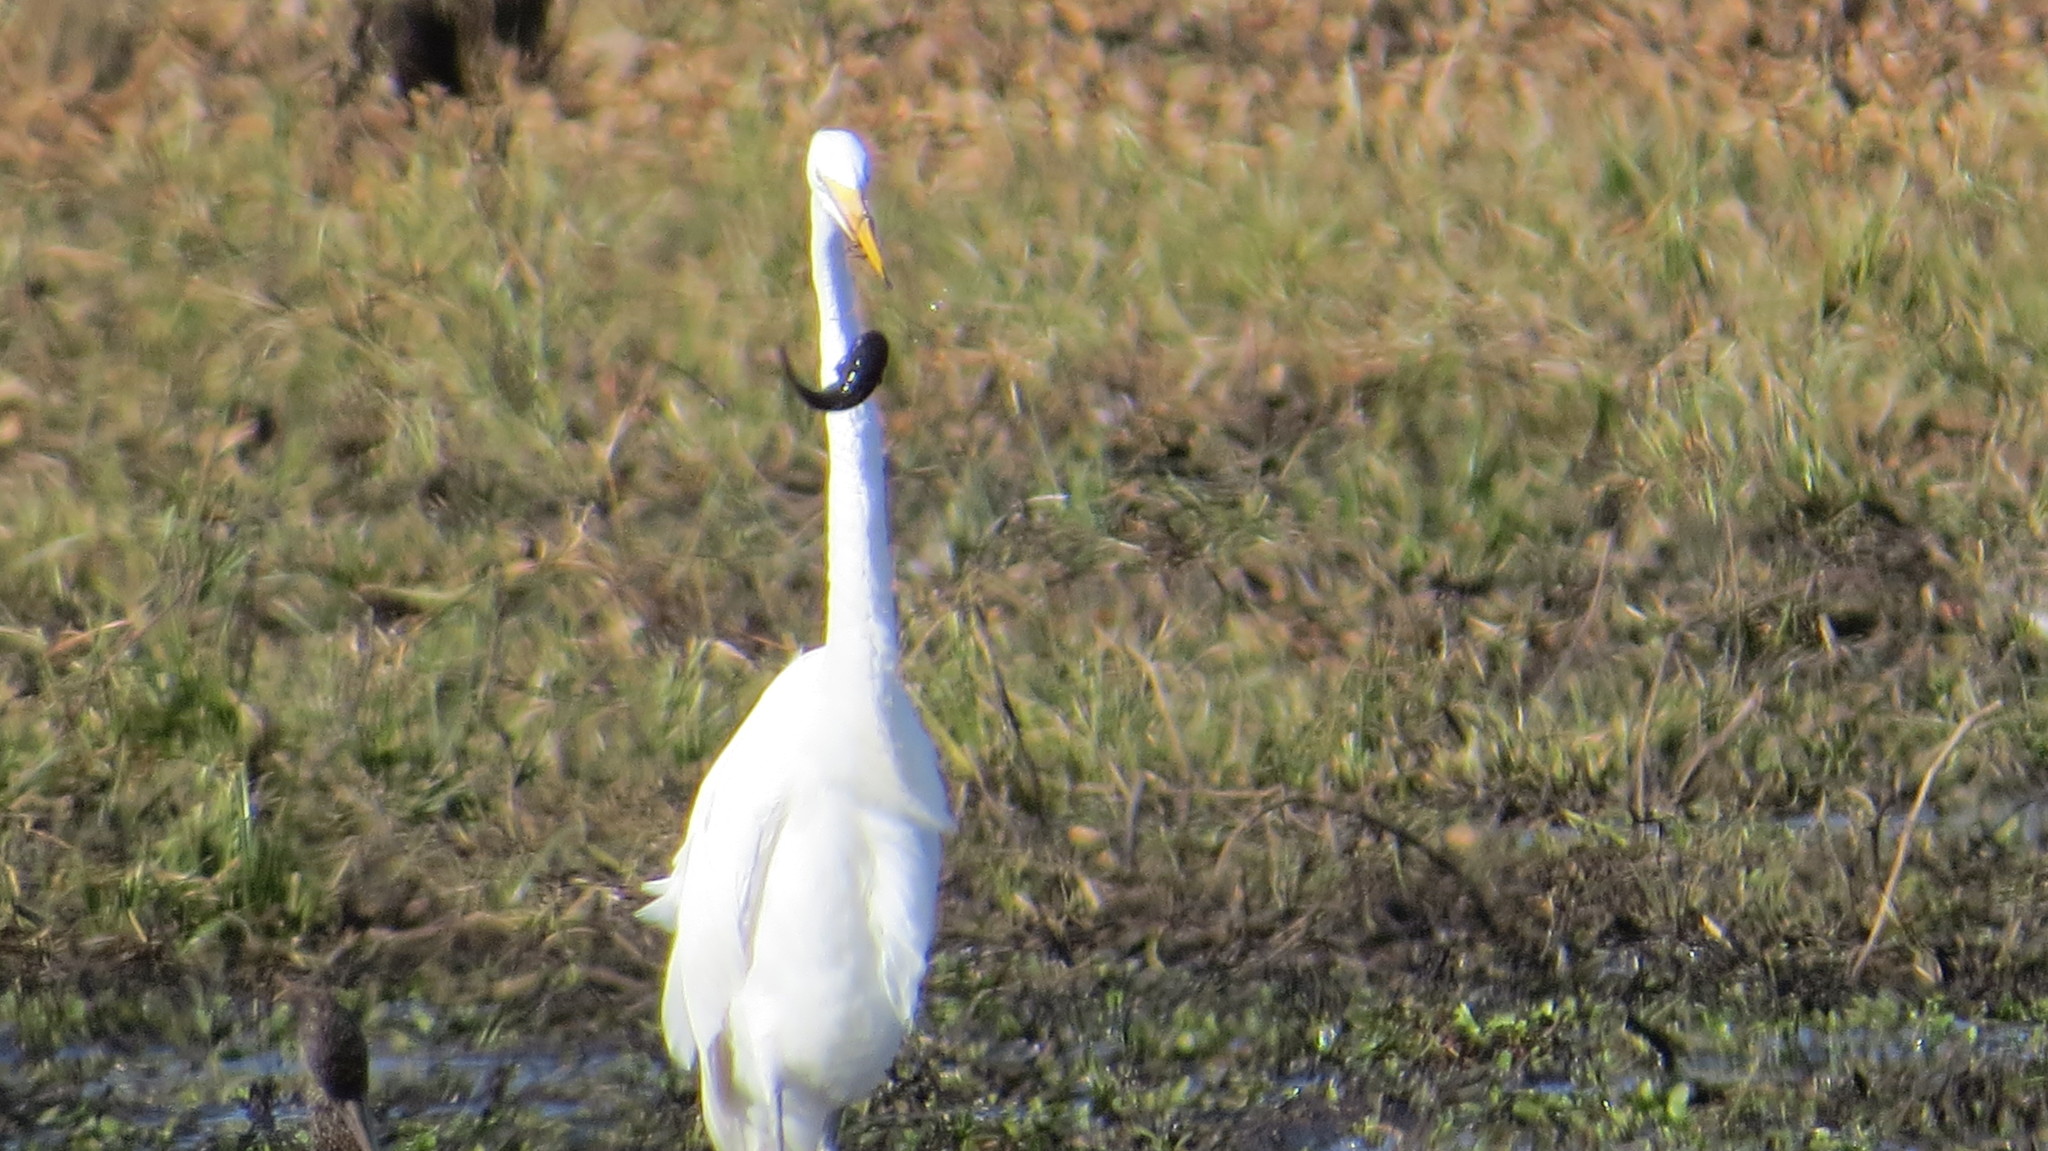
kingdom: Animalia
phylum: Chordata
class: Aves
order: Pelecaniformes
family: Ardeidae
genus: Ardea
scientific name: Ardea alba
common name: Great egret
